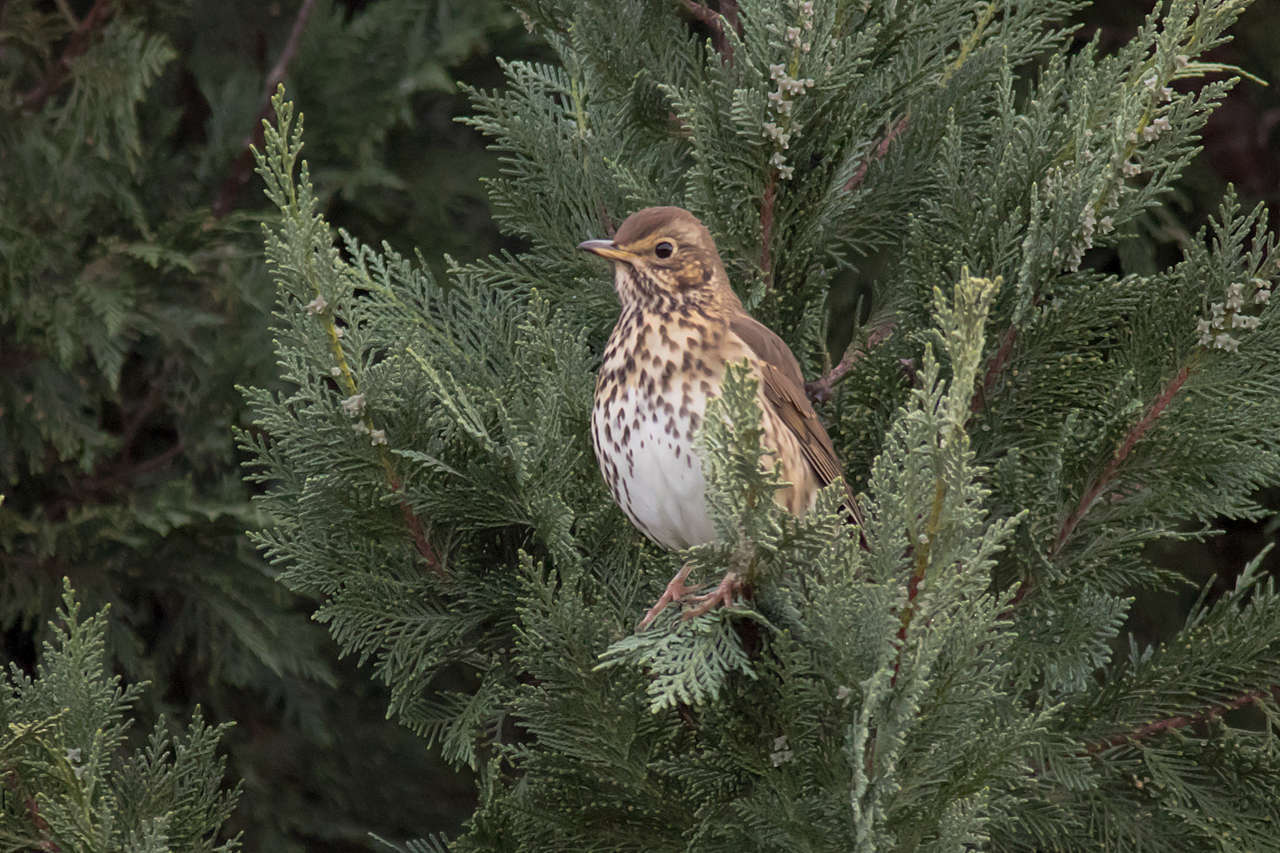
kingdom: Animalia
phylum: Chordata
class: Aves
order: Passeriformes
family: Turdidae
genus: Turdus
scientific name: Turdus philomelos
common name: Song thrush
